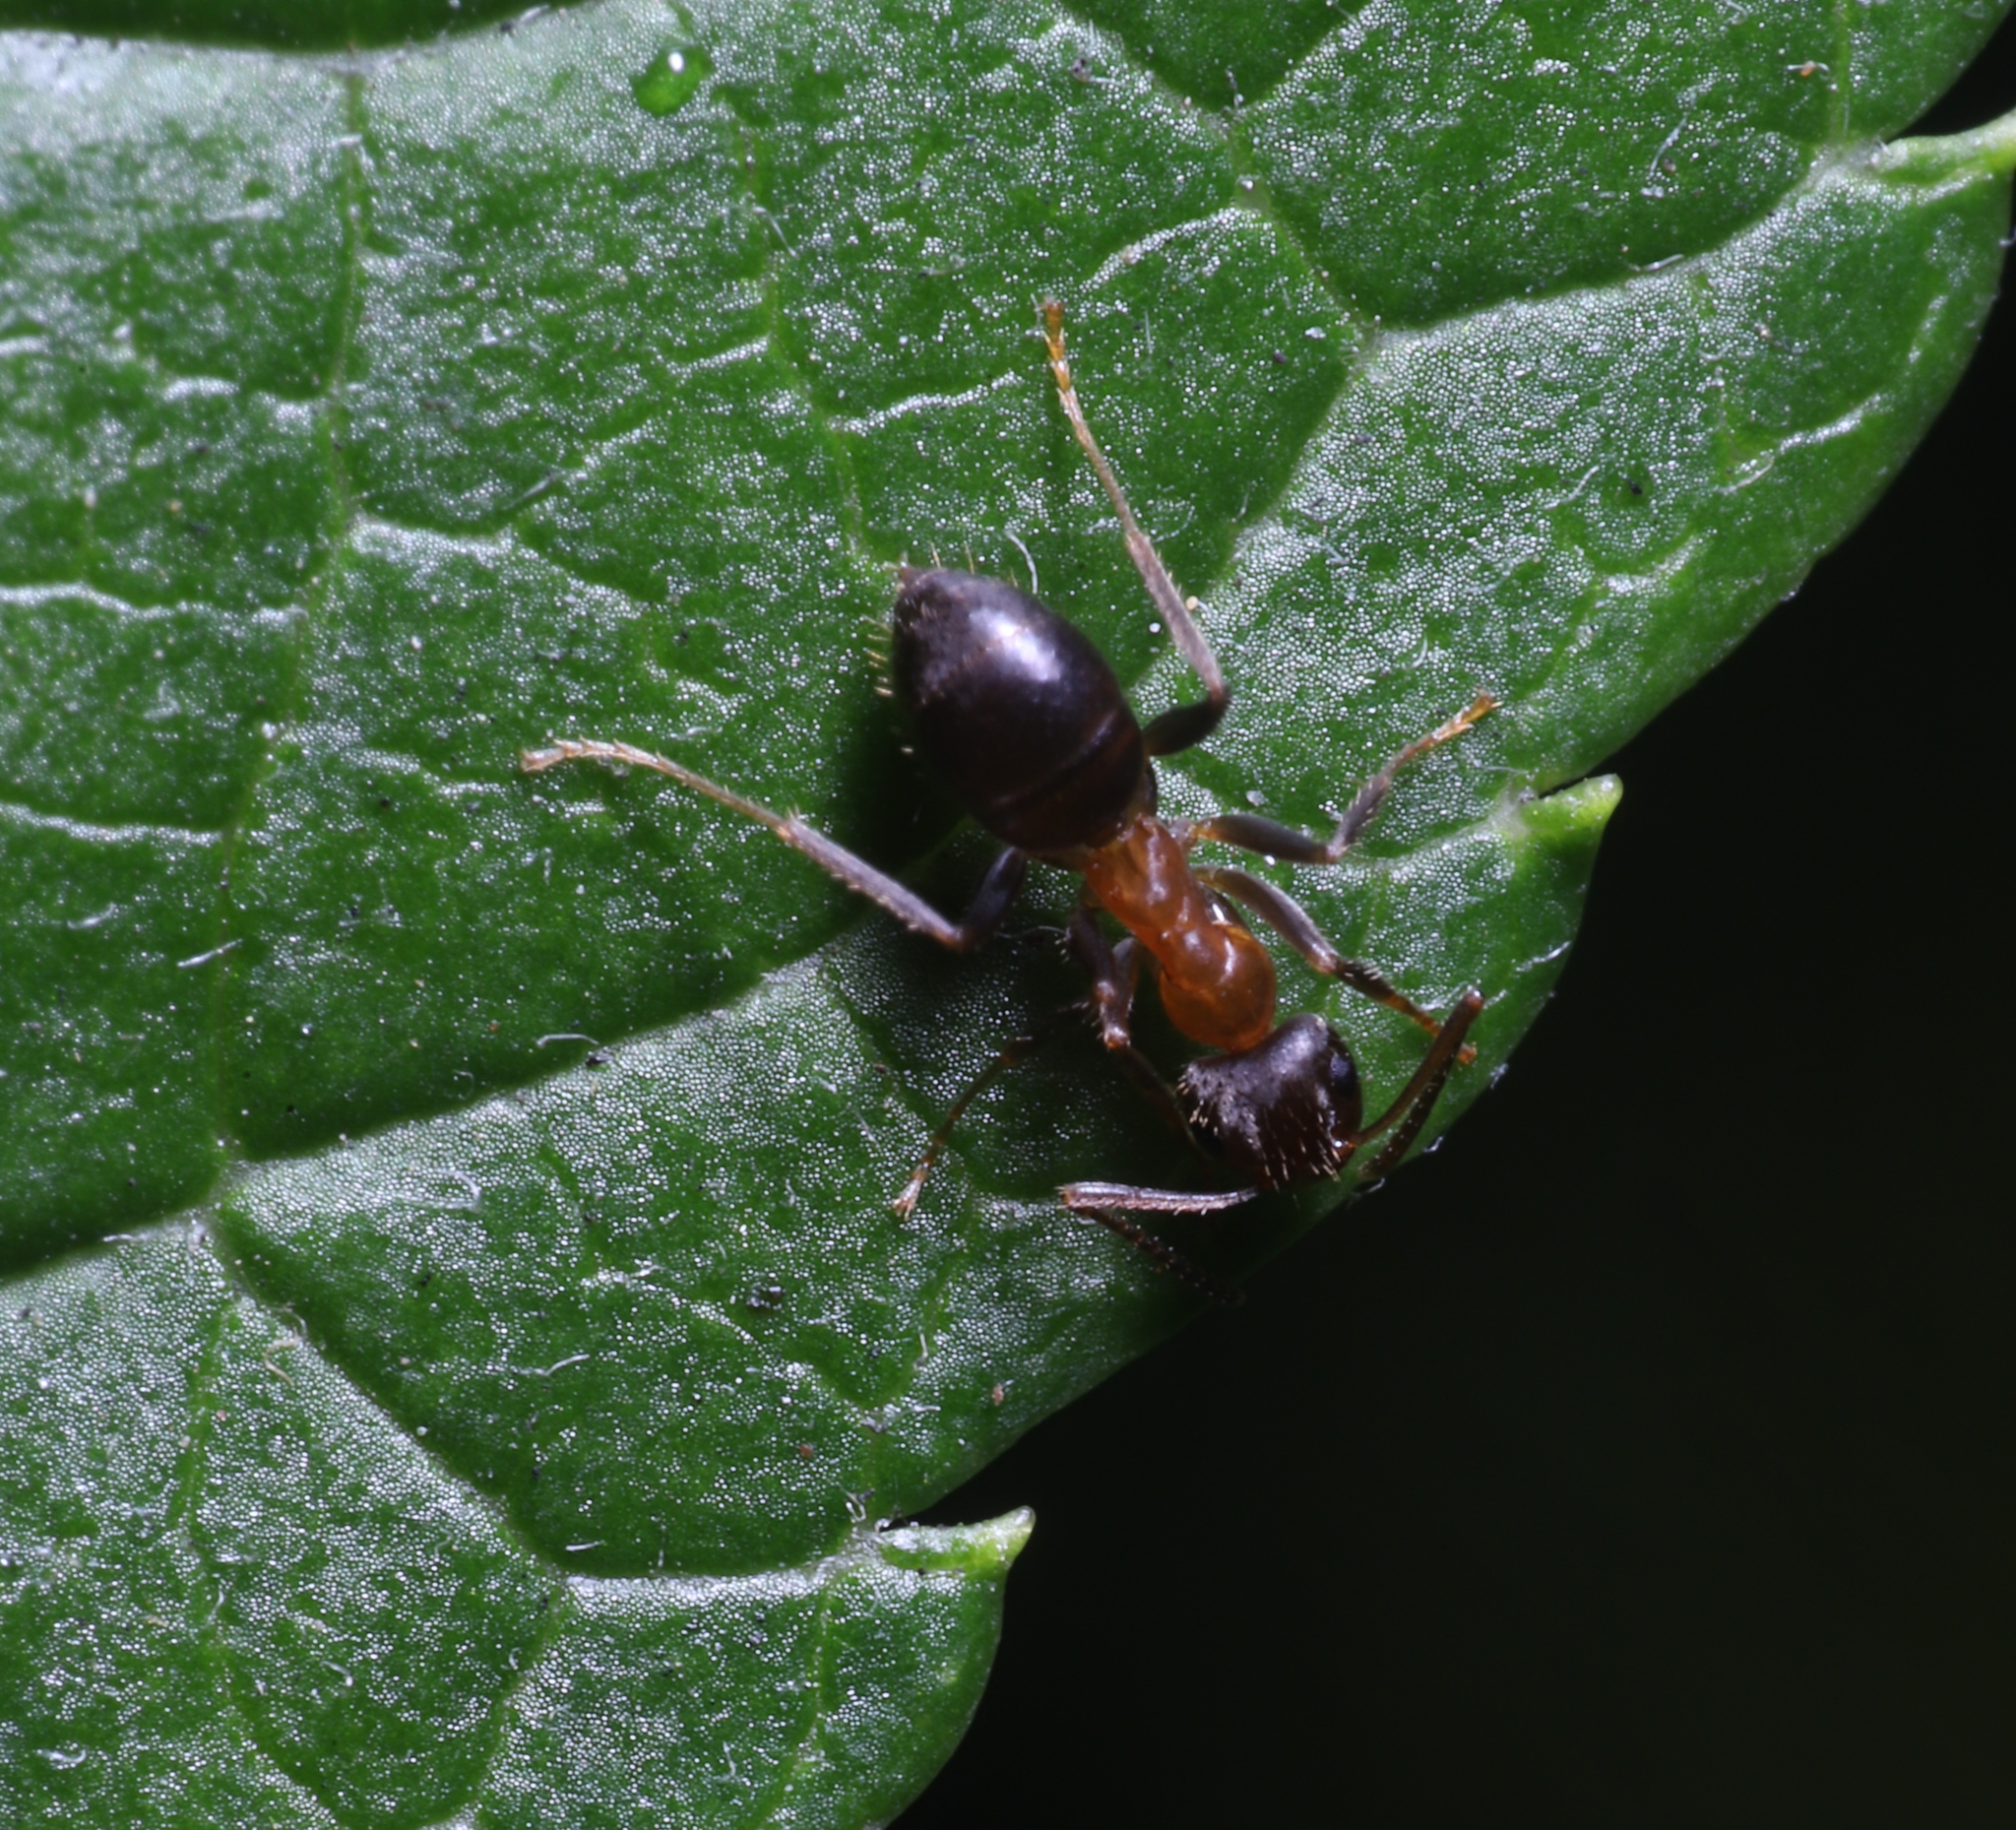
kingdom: Animalia
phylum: Arthropoda
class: Insecta
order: Hymenoptera
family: Formicidae
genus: Lasius
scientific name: Lasius emarginatus
